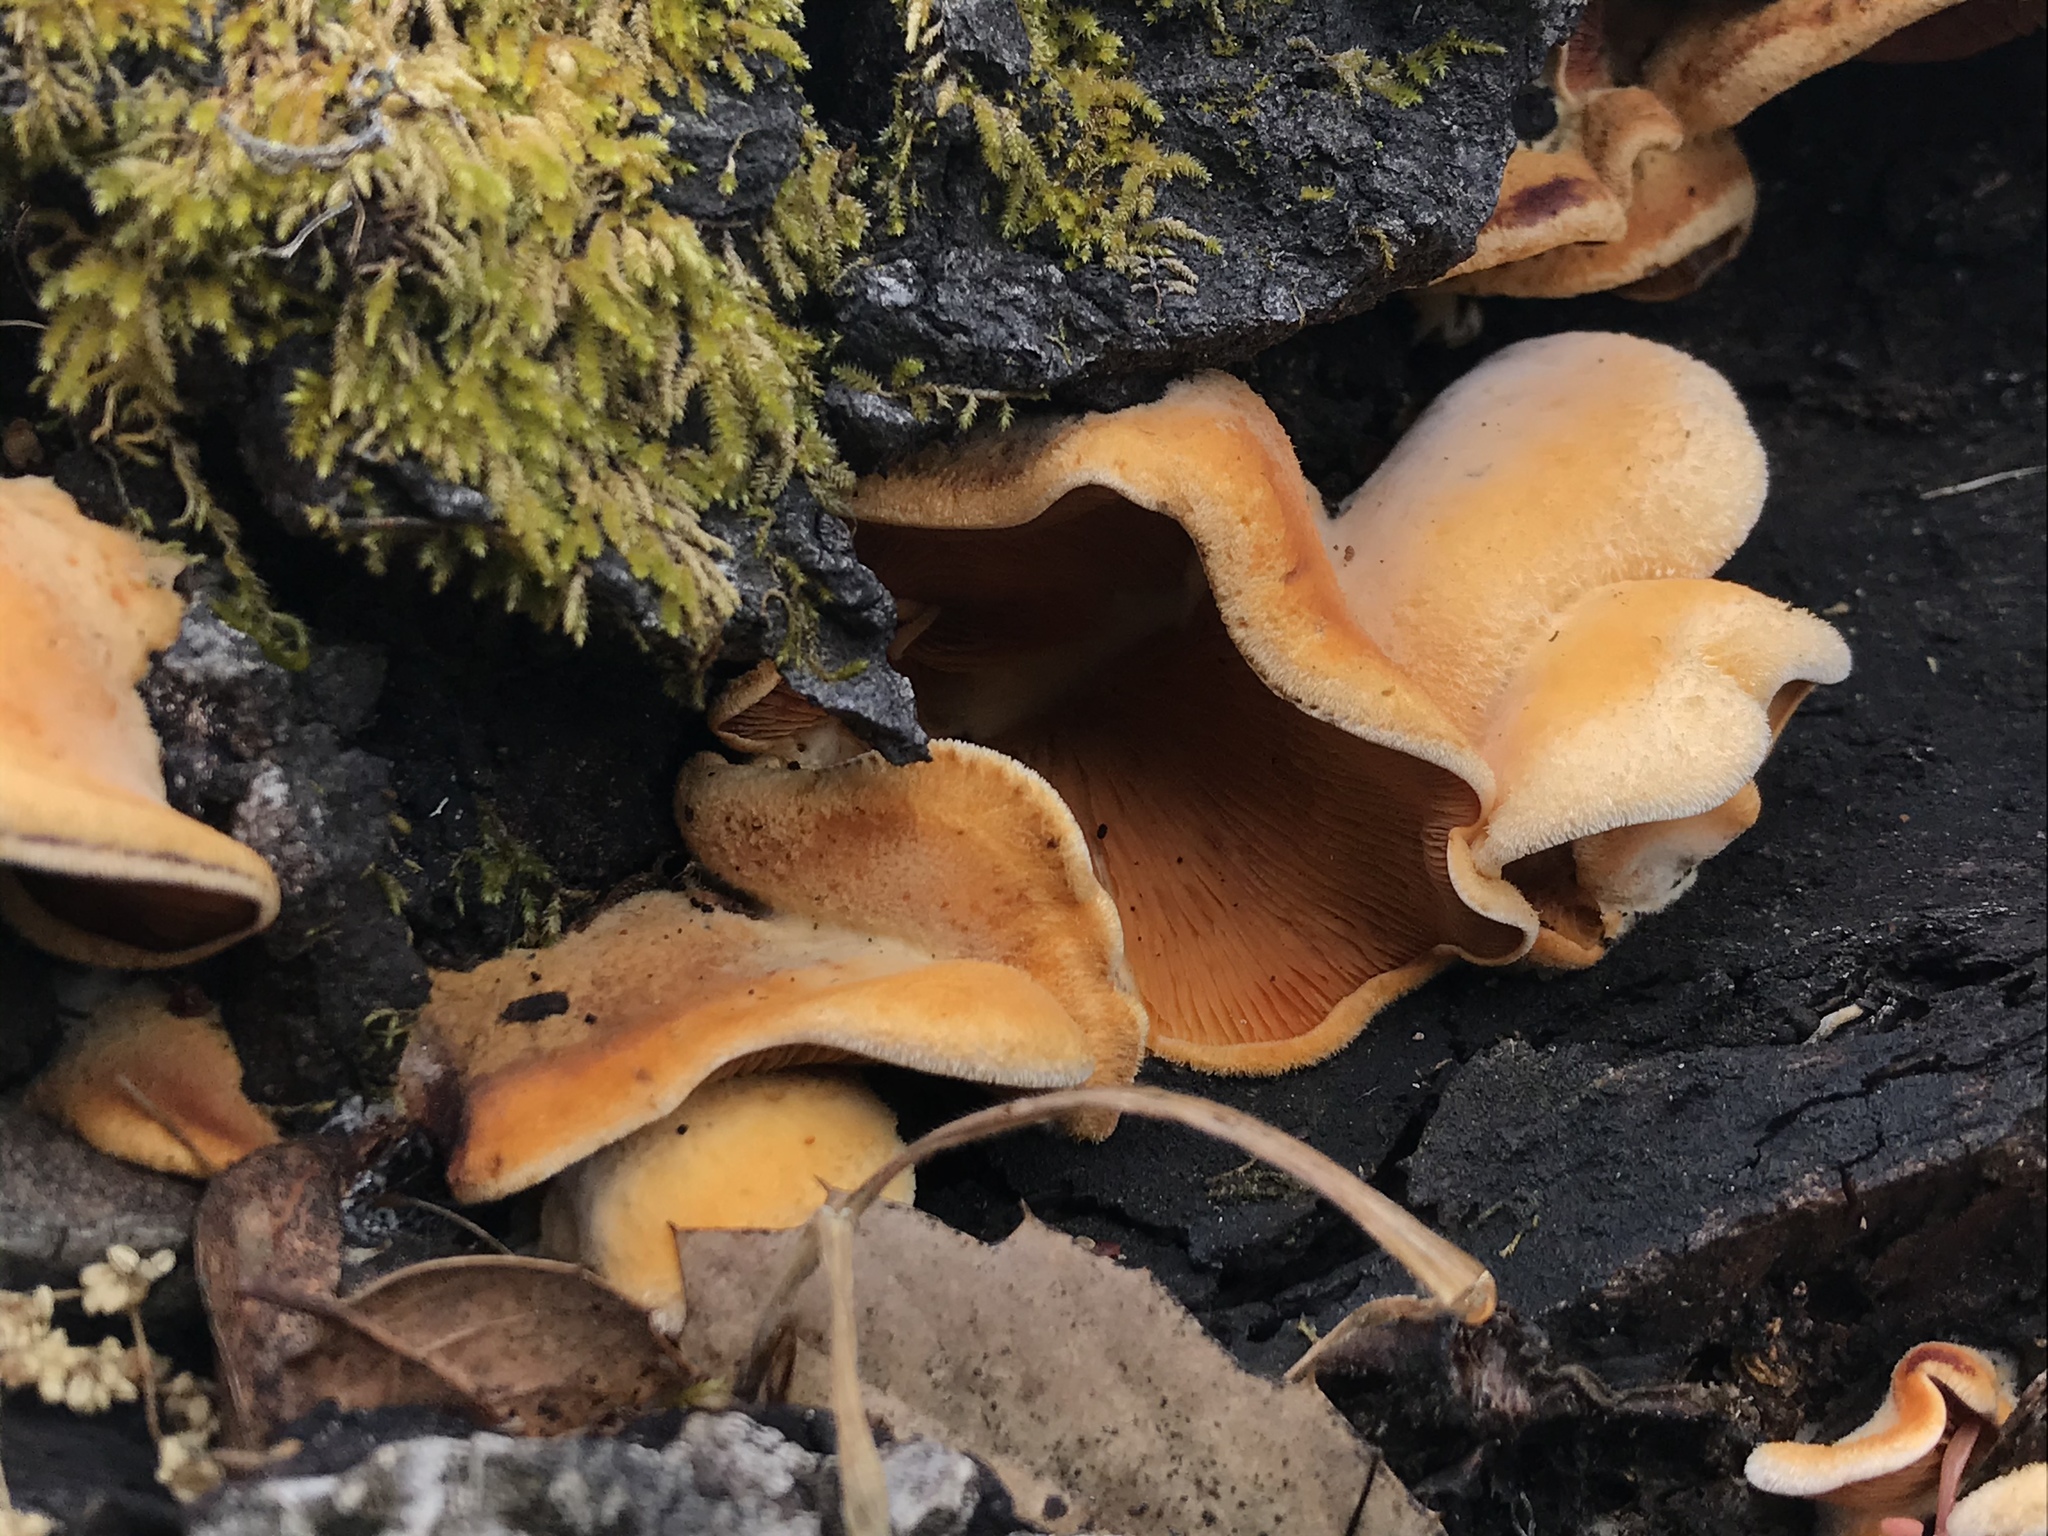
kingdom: Fungi
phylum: Basidiomycota
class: Agaricomycetes
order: Agaricales
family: Phyllotopsidaceae
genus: Phyllotopsis
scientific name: Phyllotopsis nidulans
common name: Orange mock oyster
